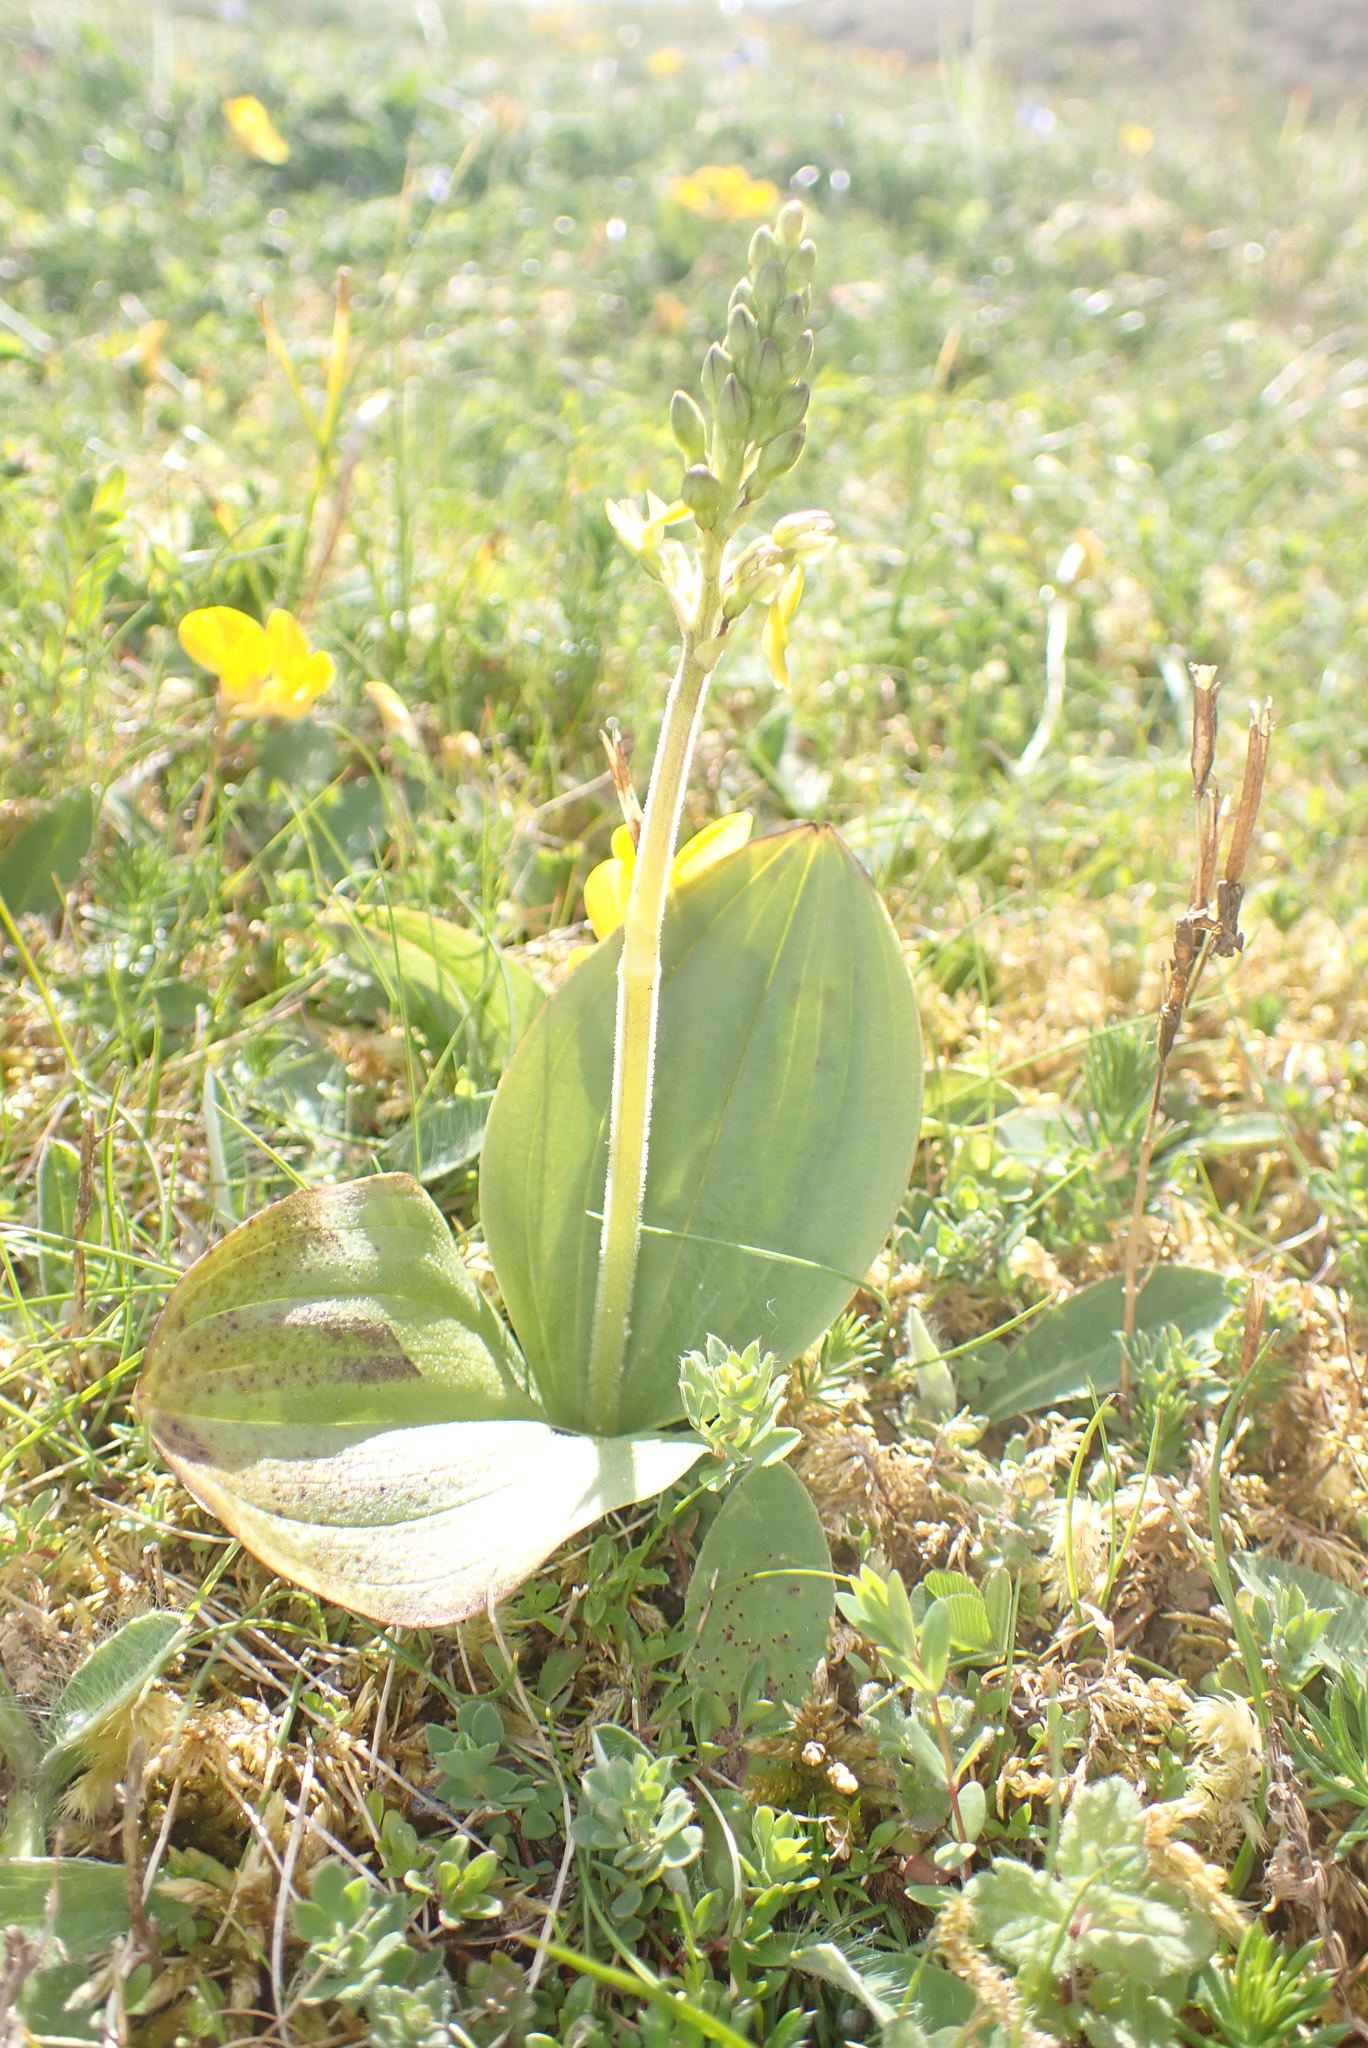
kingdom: Plantae
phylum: Tracheophyta
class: Liliopsida
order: Asparagales
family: Orchidaceae
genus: Neottia
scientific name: Neottia ovata
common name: Common twayblade
